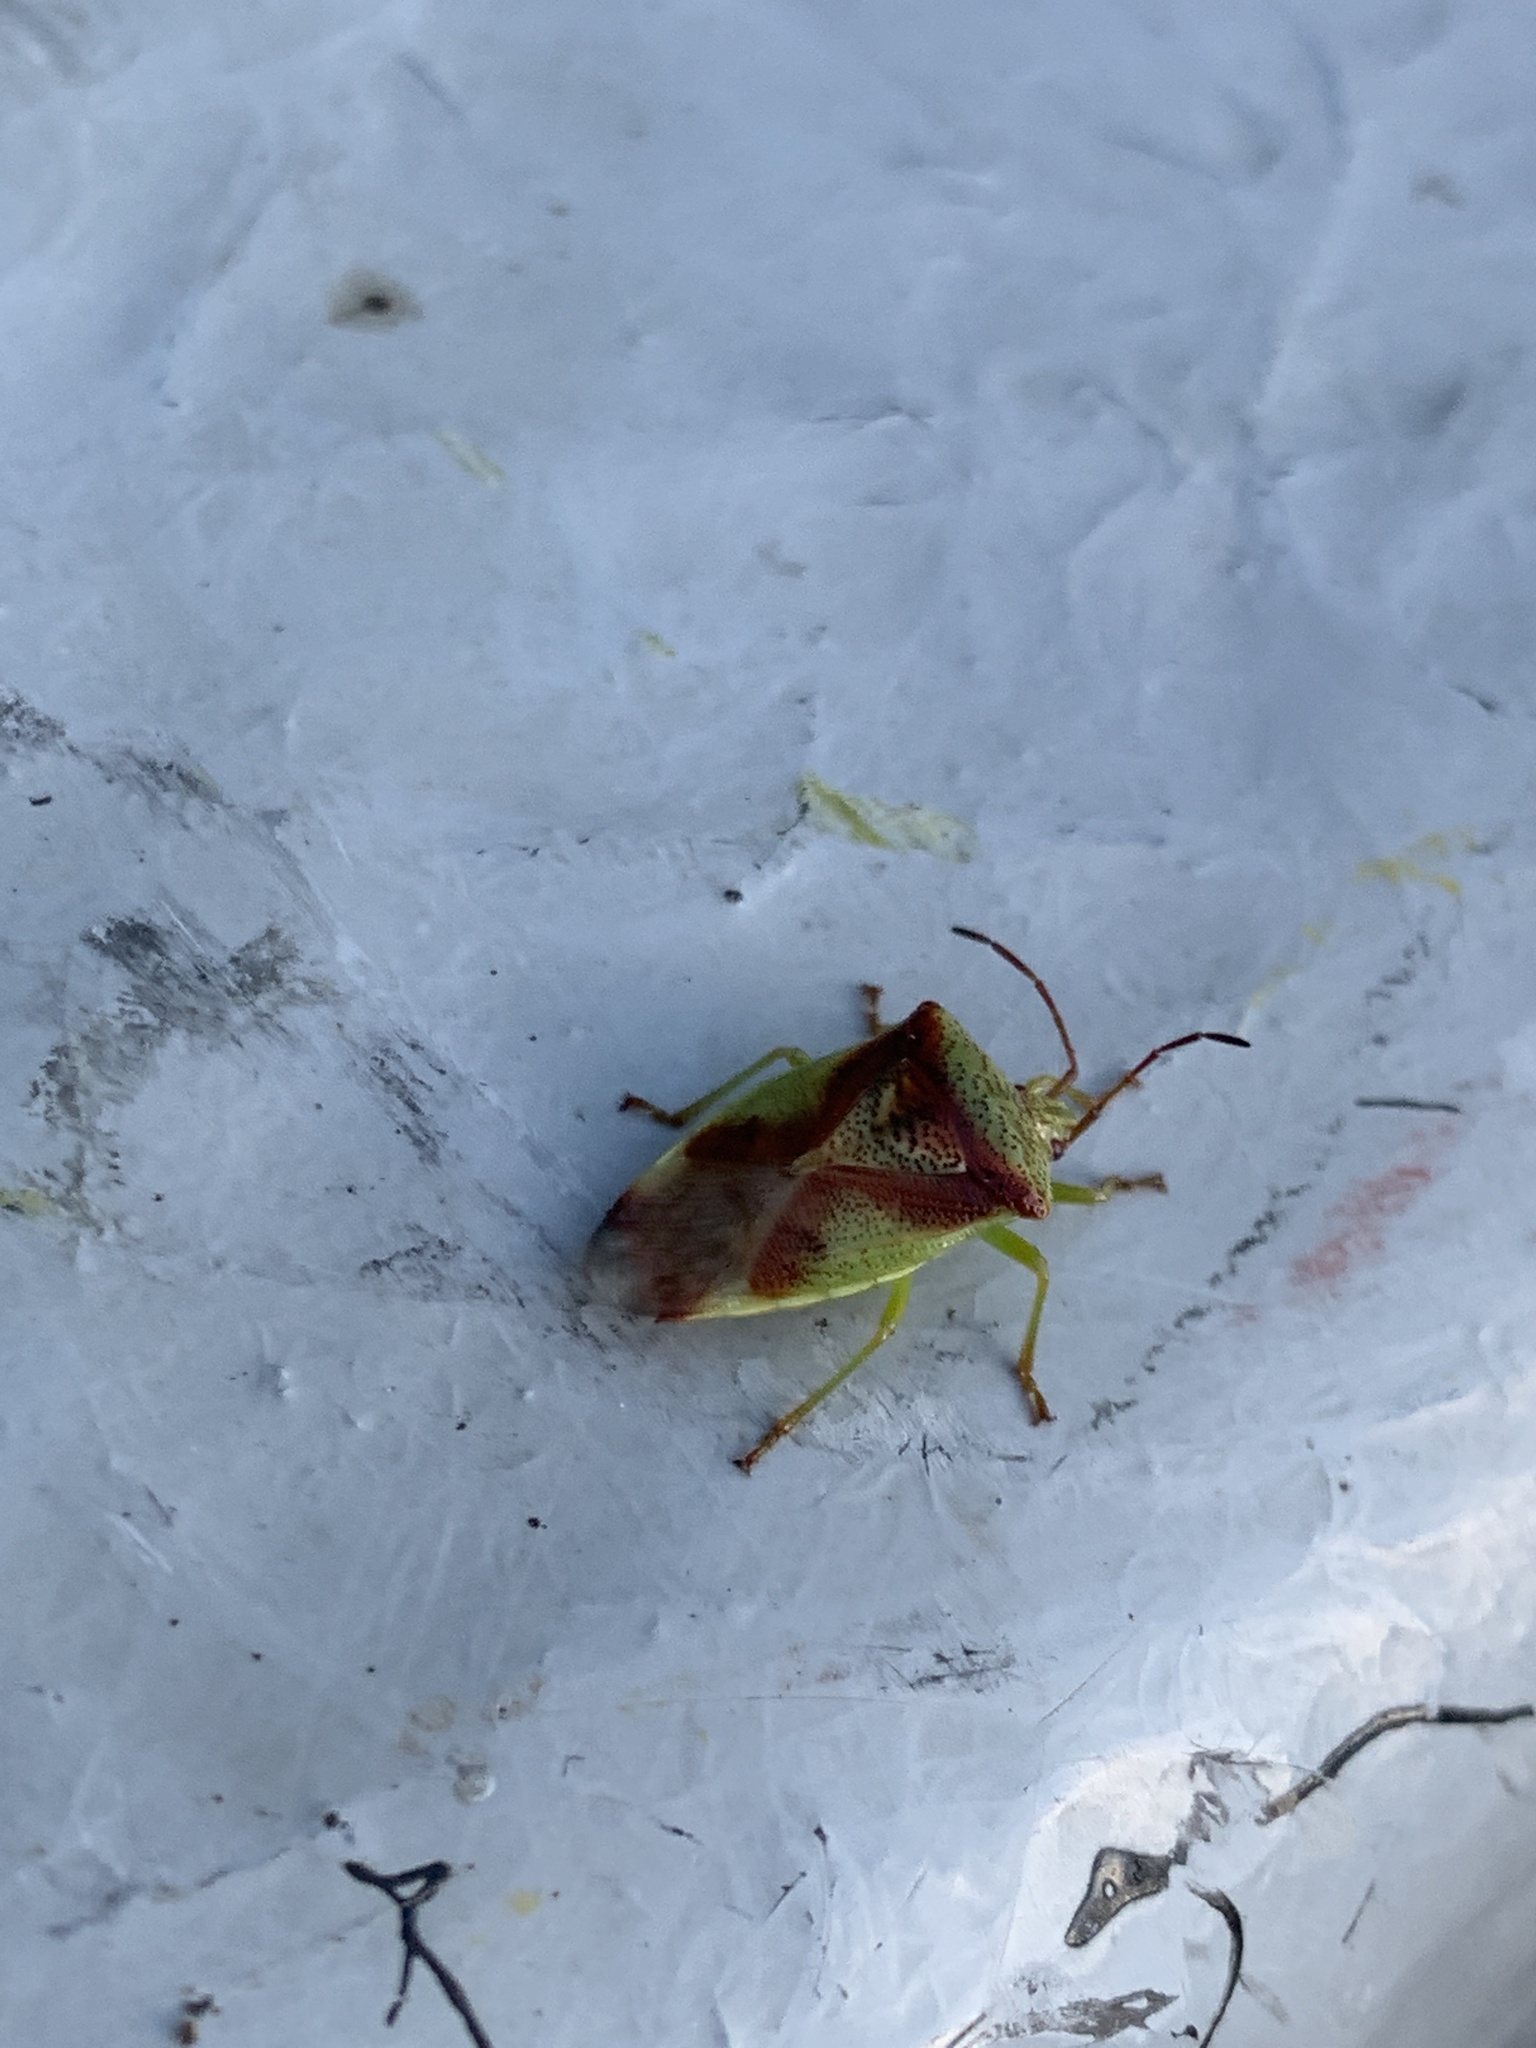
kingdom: Animalia
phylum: Arthropoda
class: Insecta
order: Hemiptera
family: Acanthosomatidae
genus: Elasmostethus
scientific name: Elasmostethus cruciatus
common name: Red-cross shield bug
